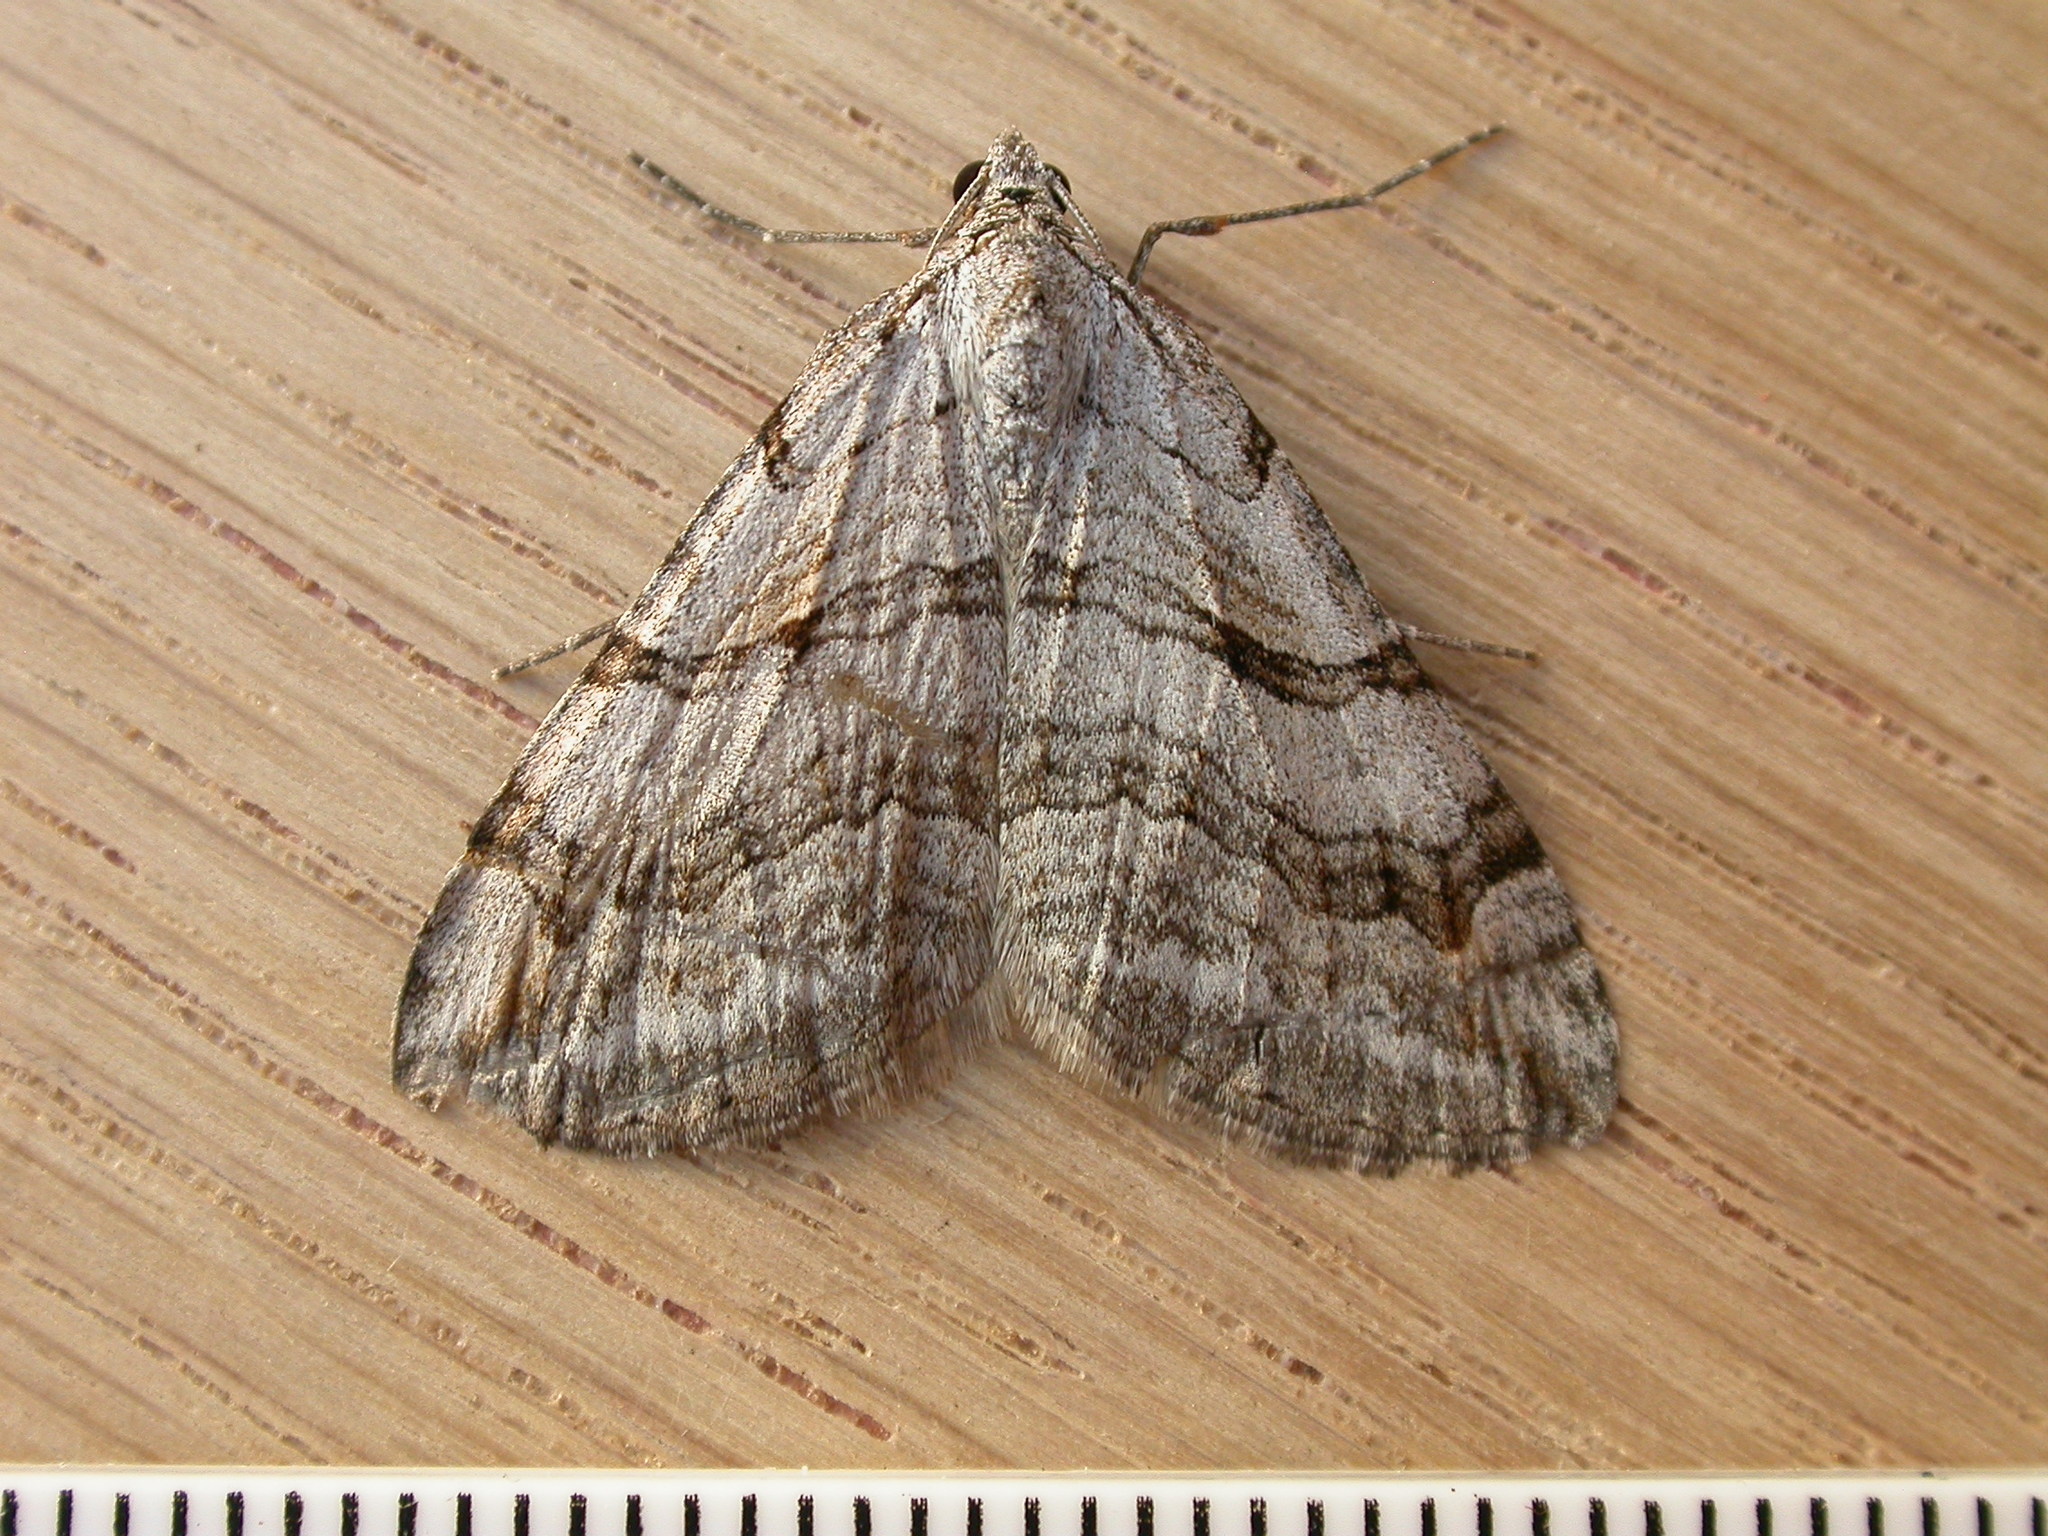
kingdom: Animalia
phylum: Arthropoda
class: Insecta
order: Lepidoptera
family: Geometridae
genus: Aplocera
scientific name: Aplocera efformata
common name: Lesser treble-bar
